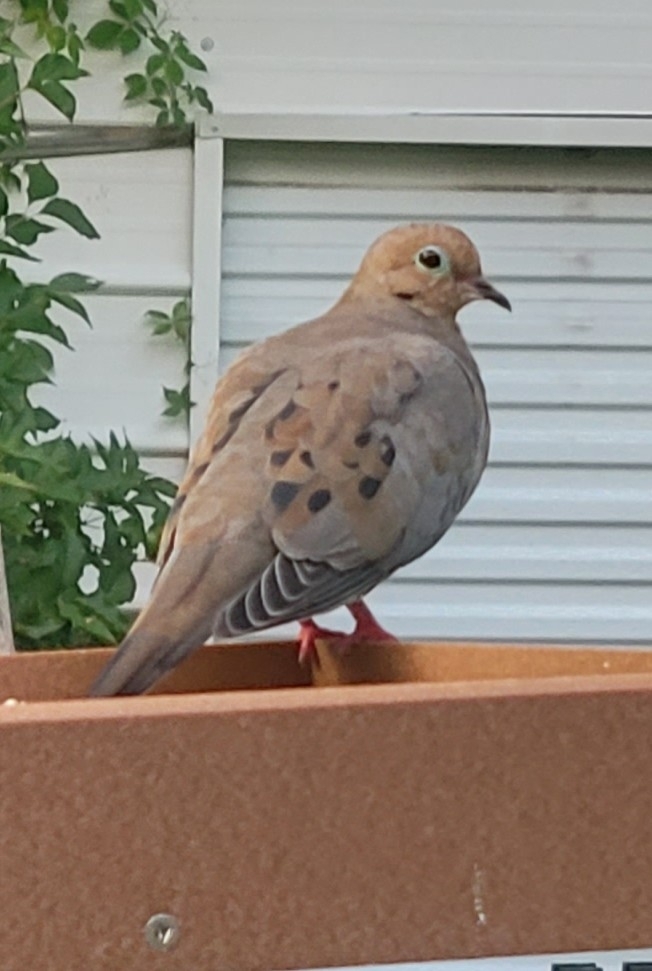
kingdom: Animalia
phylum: Chordata
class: Aves
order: Columbiformes
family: Columbidae
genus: Zenaida
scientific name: Zenaida macroura
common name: Mourning dove
